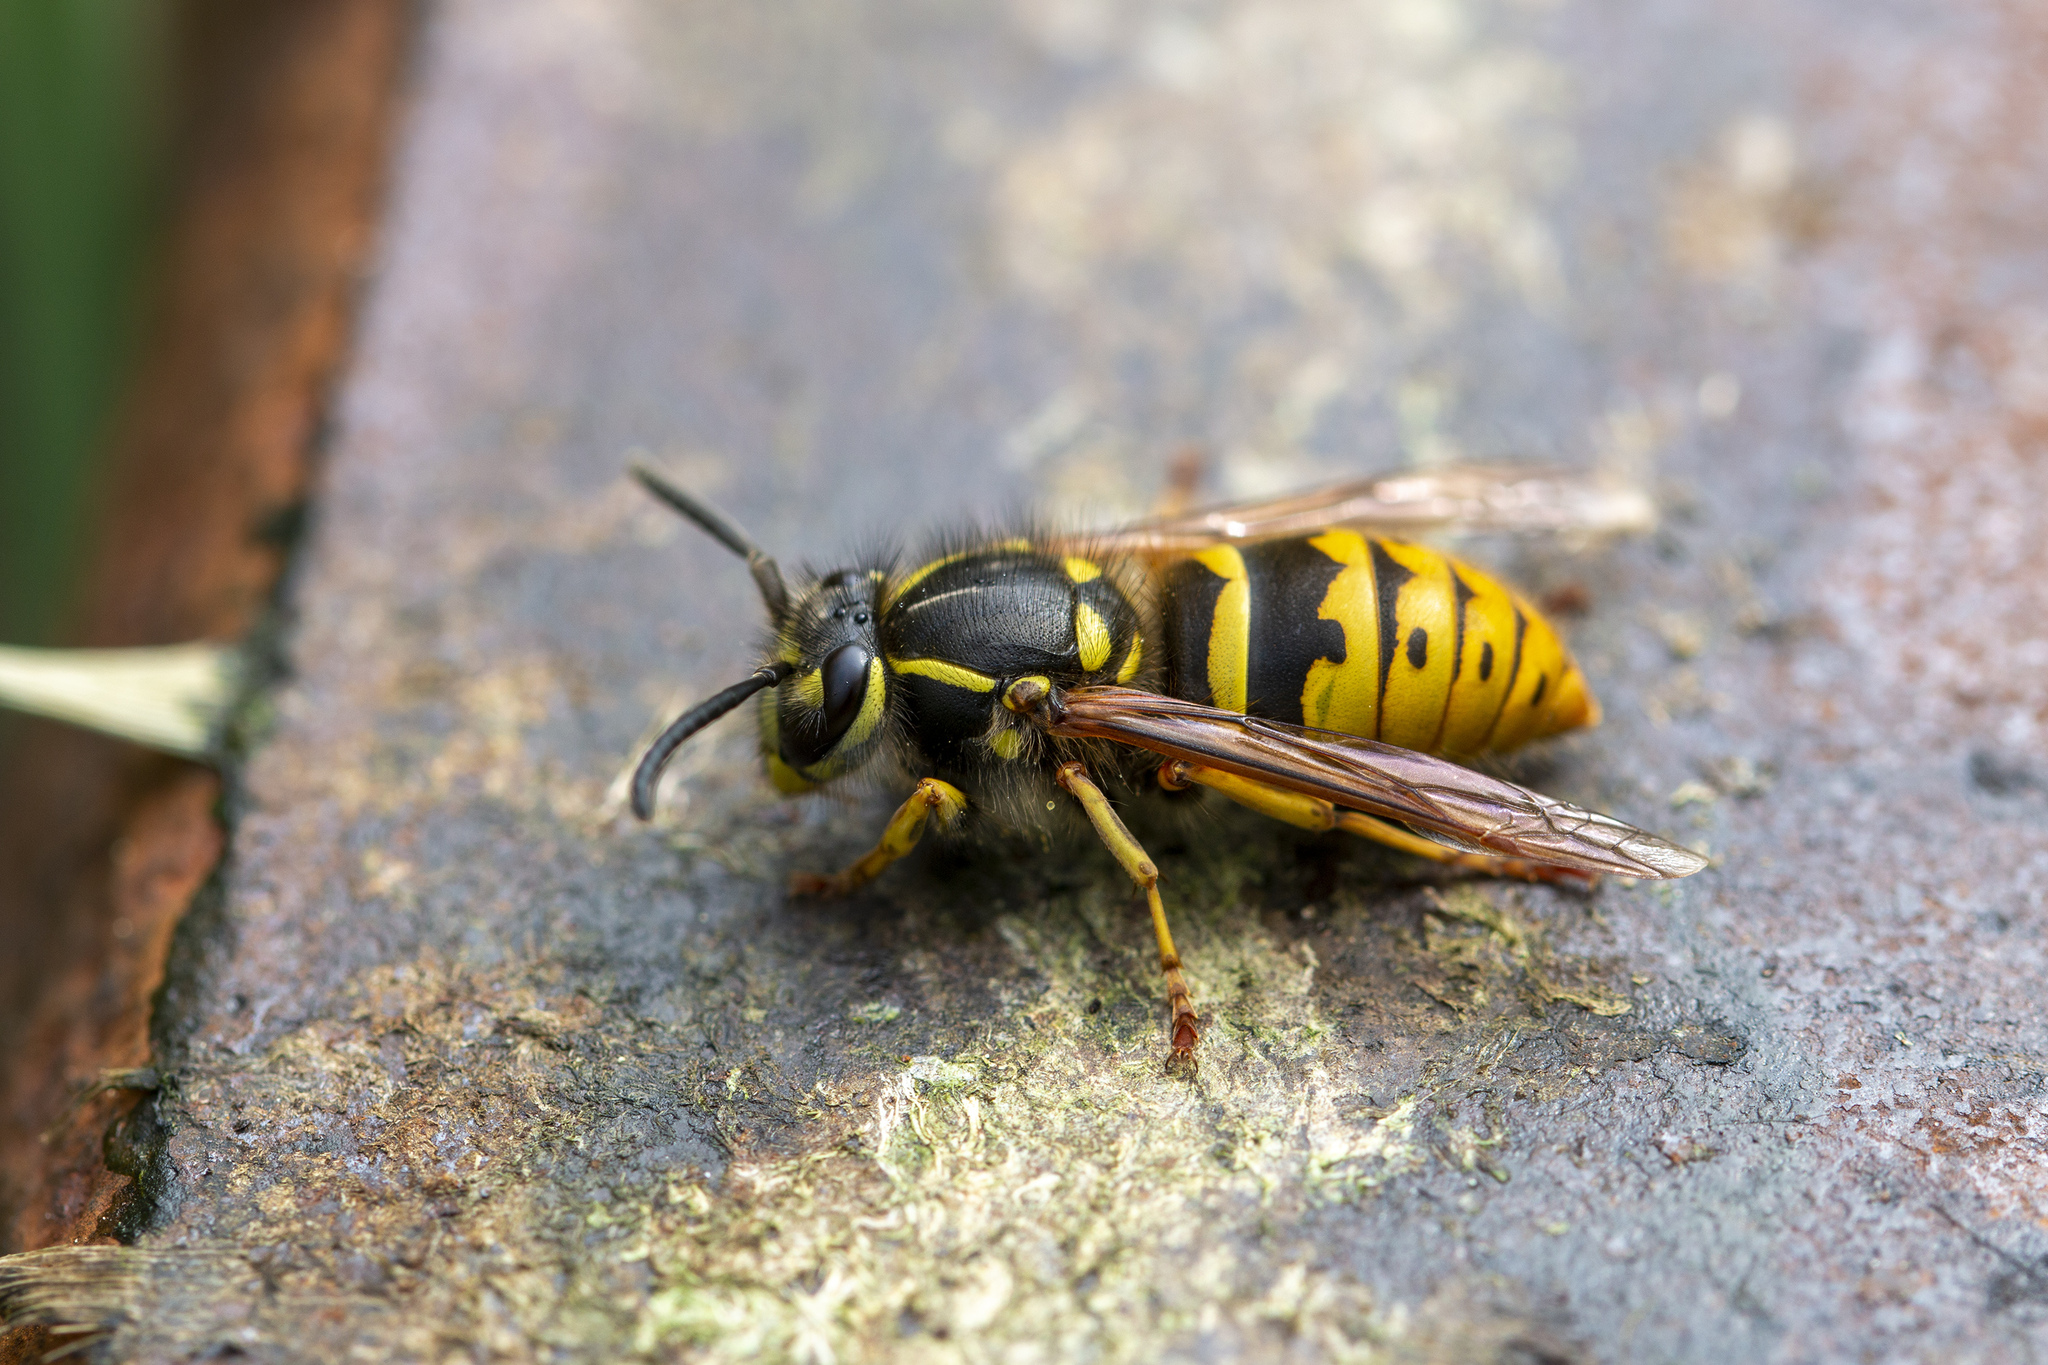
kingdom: Animalia
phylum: Arthropoda
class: Insecta
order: Hymenoptera
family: Vespidae
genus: Vespula
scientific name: Vespula vulgaris
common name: Common wasp
